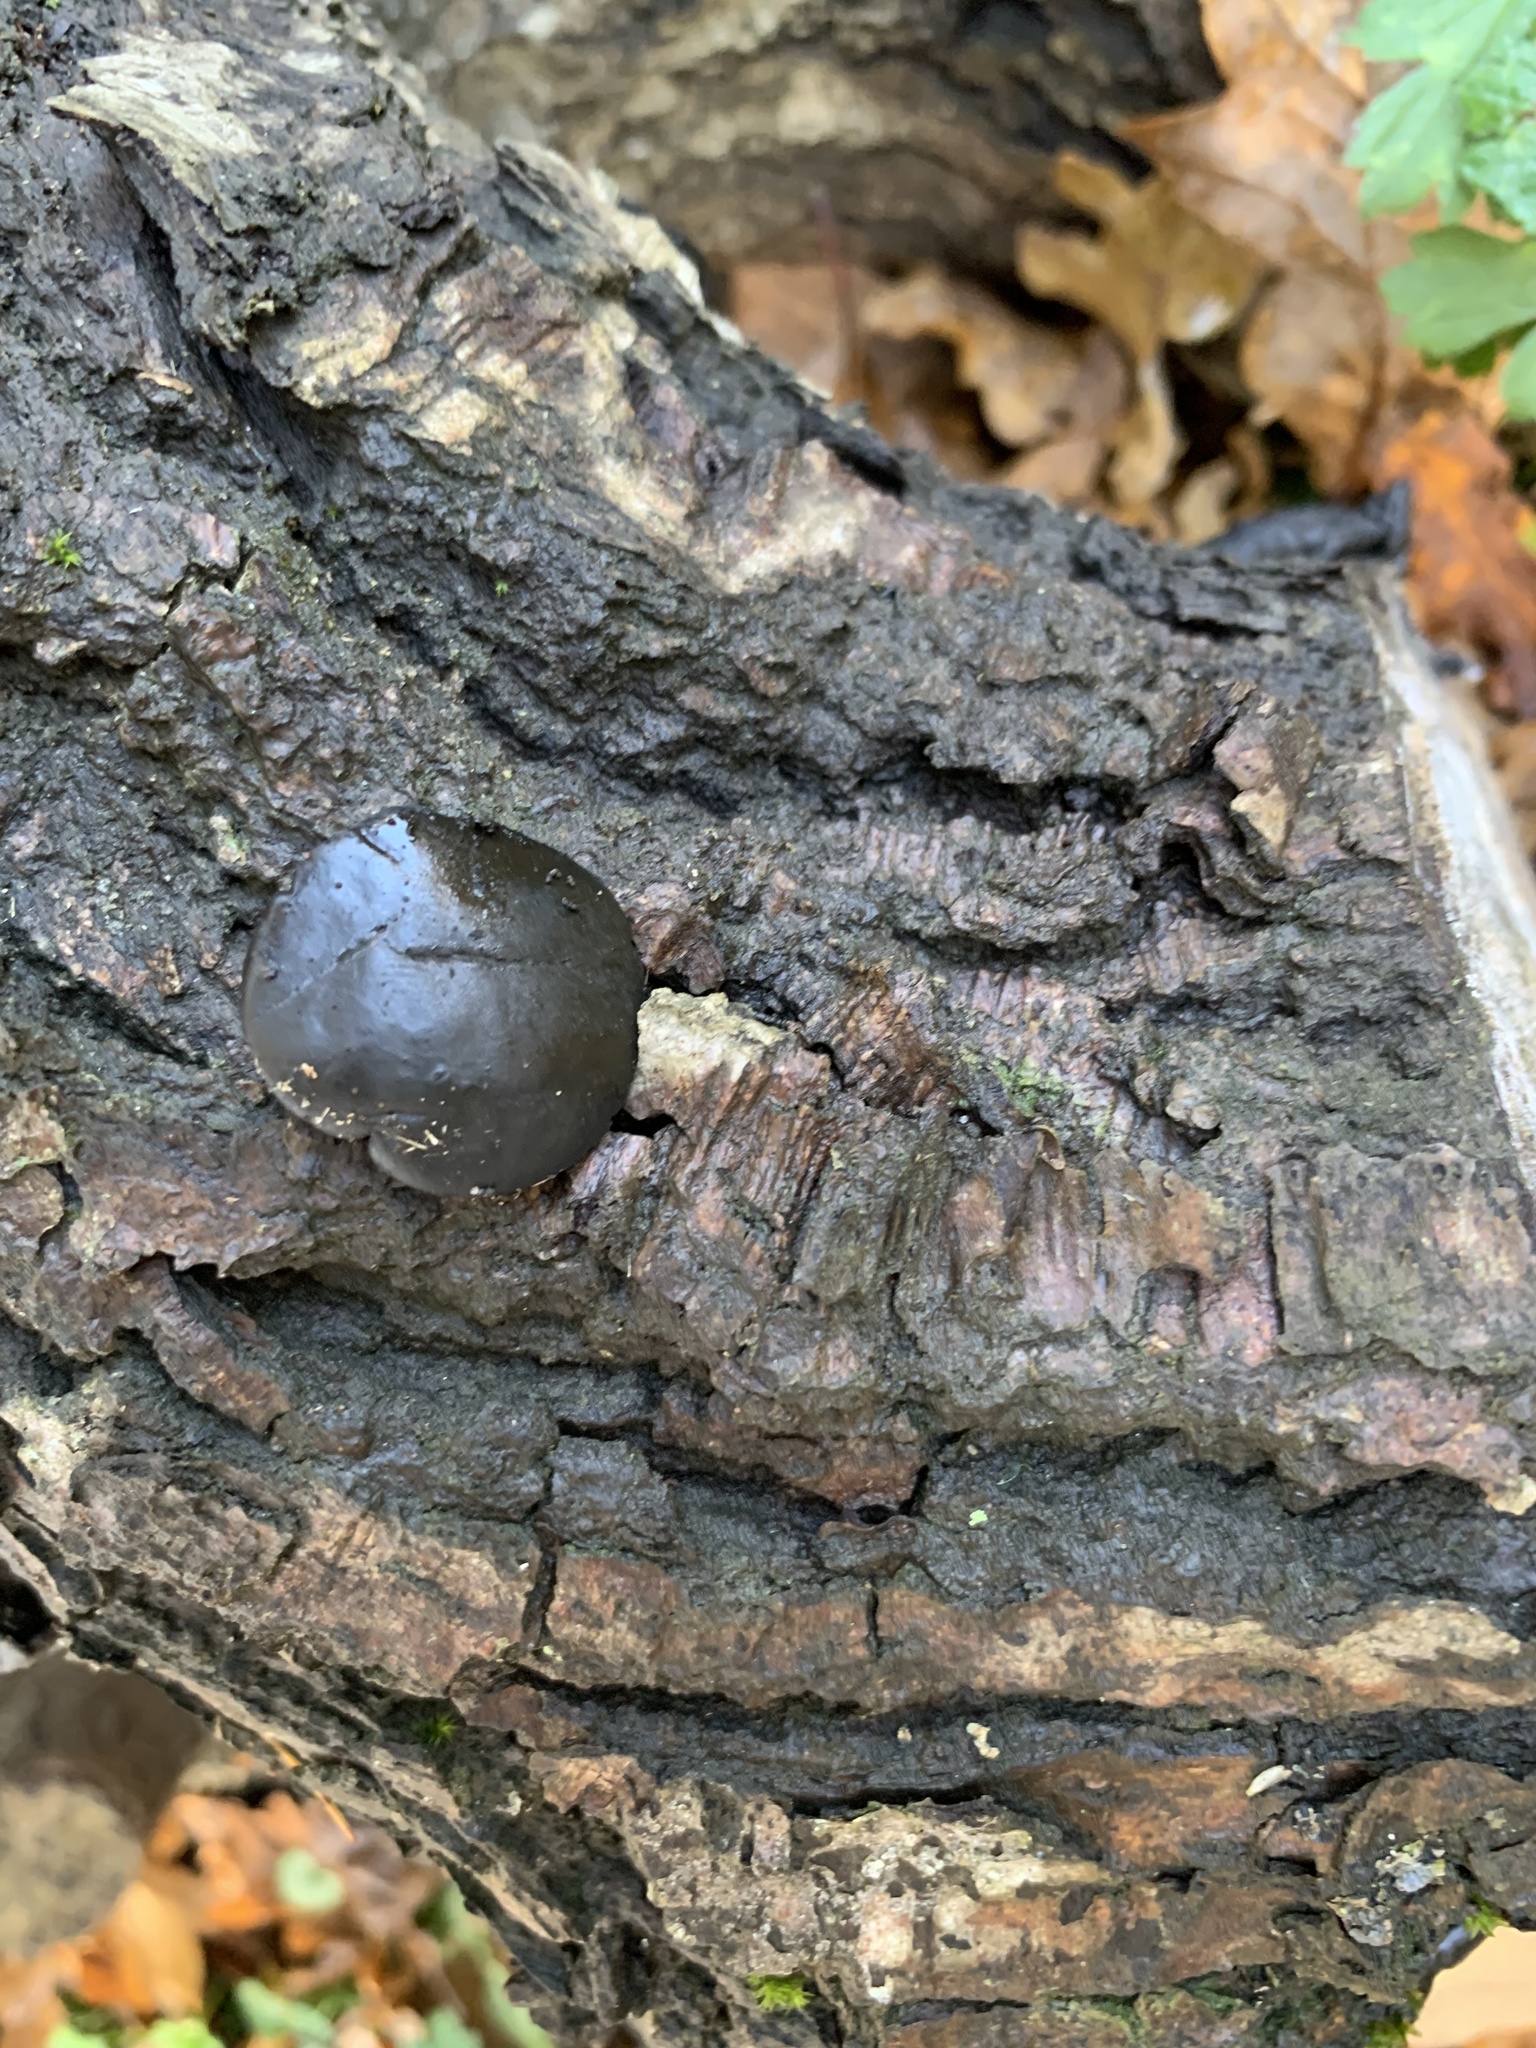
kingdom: Fungi
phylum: Ascomycota
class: Leotiomycetes
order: Phacidiales
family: Phacidiaceae
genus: Bulgaria
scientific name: Bulgaria inquinans
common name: Black bulgar
